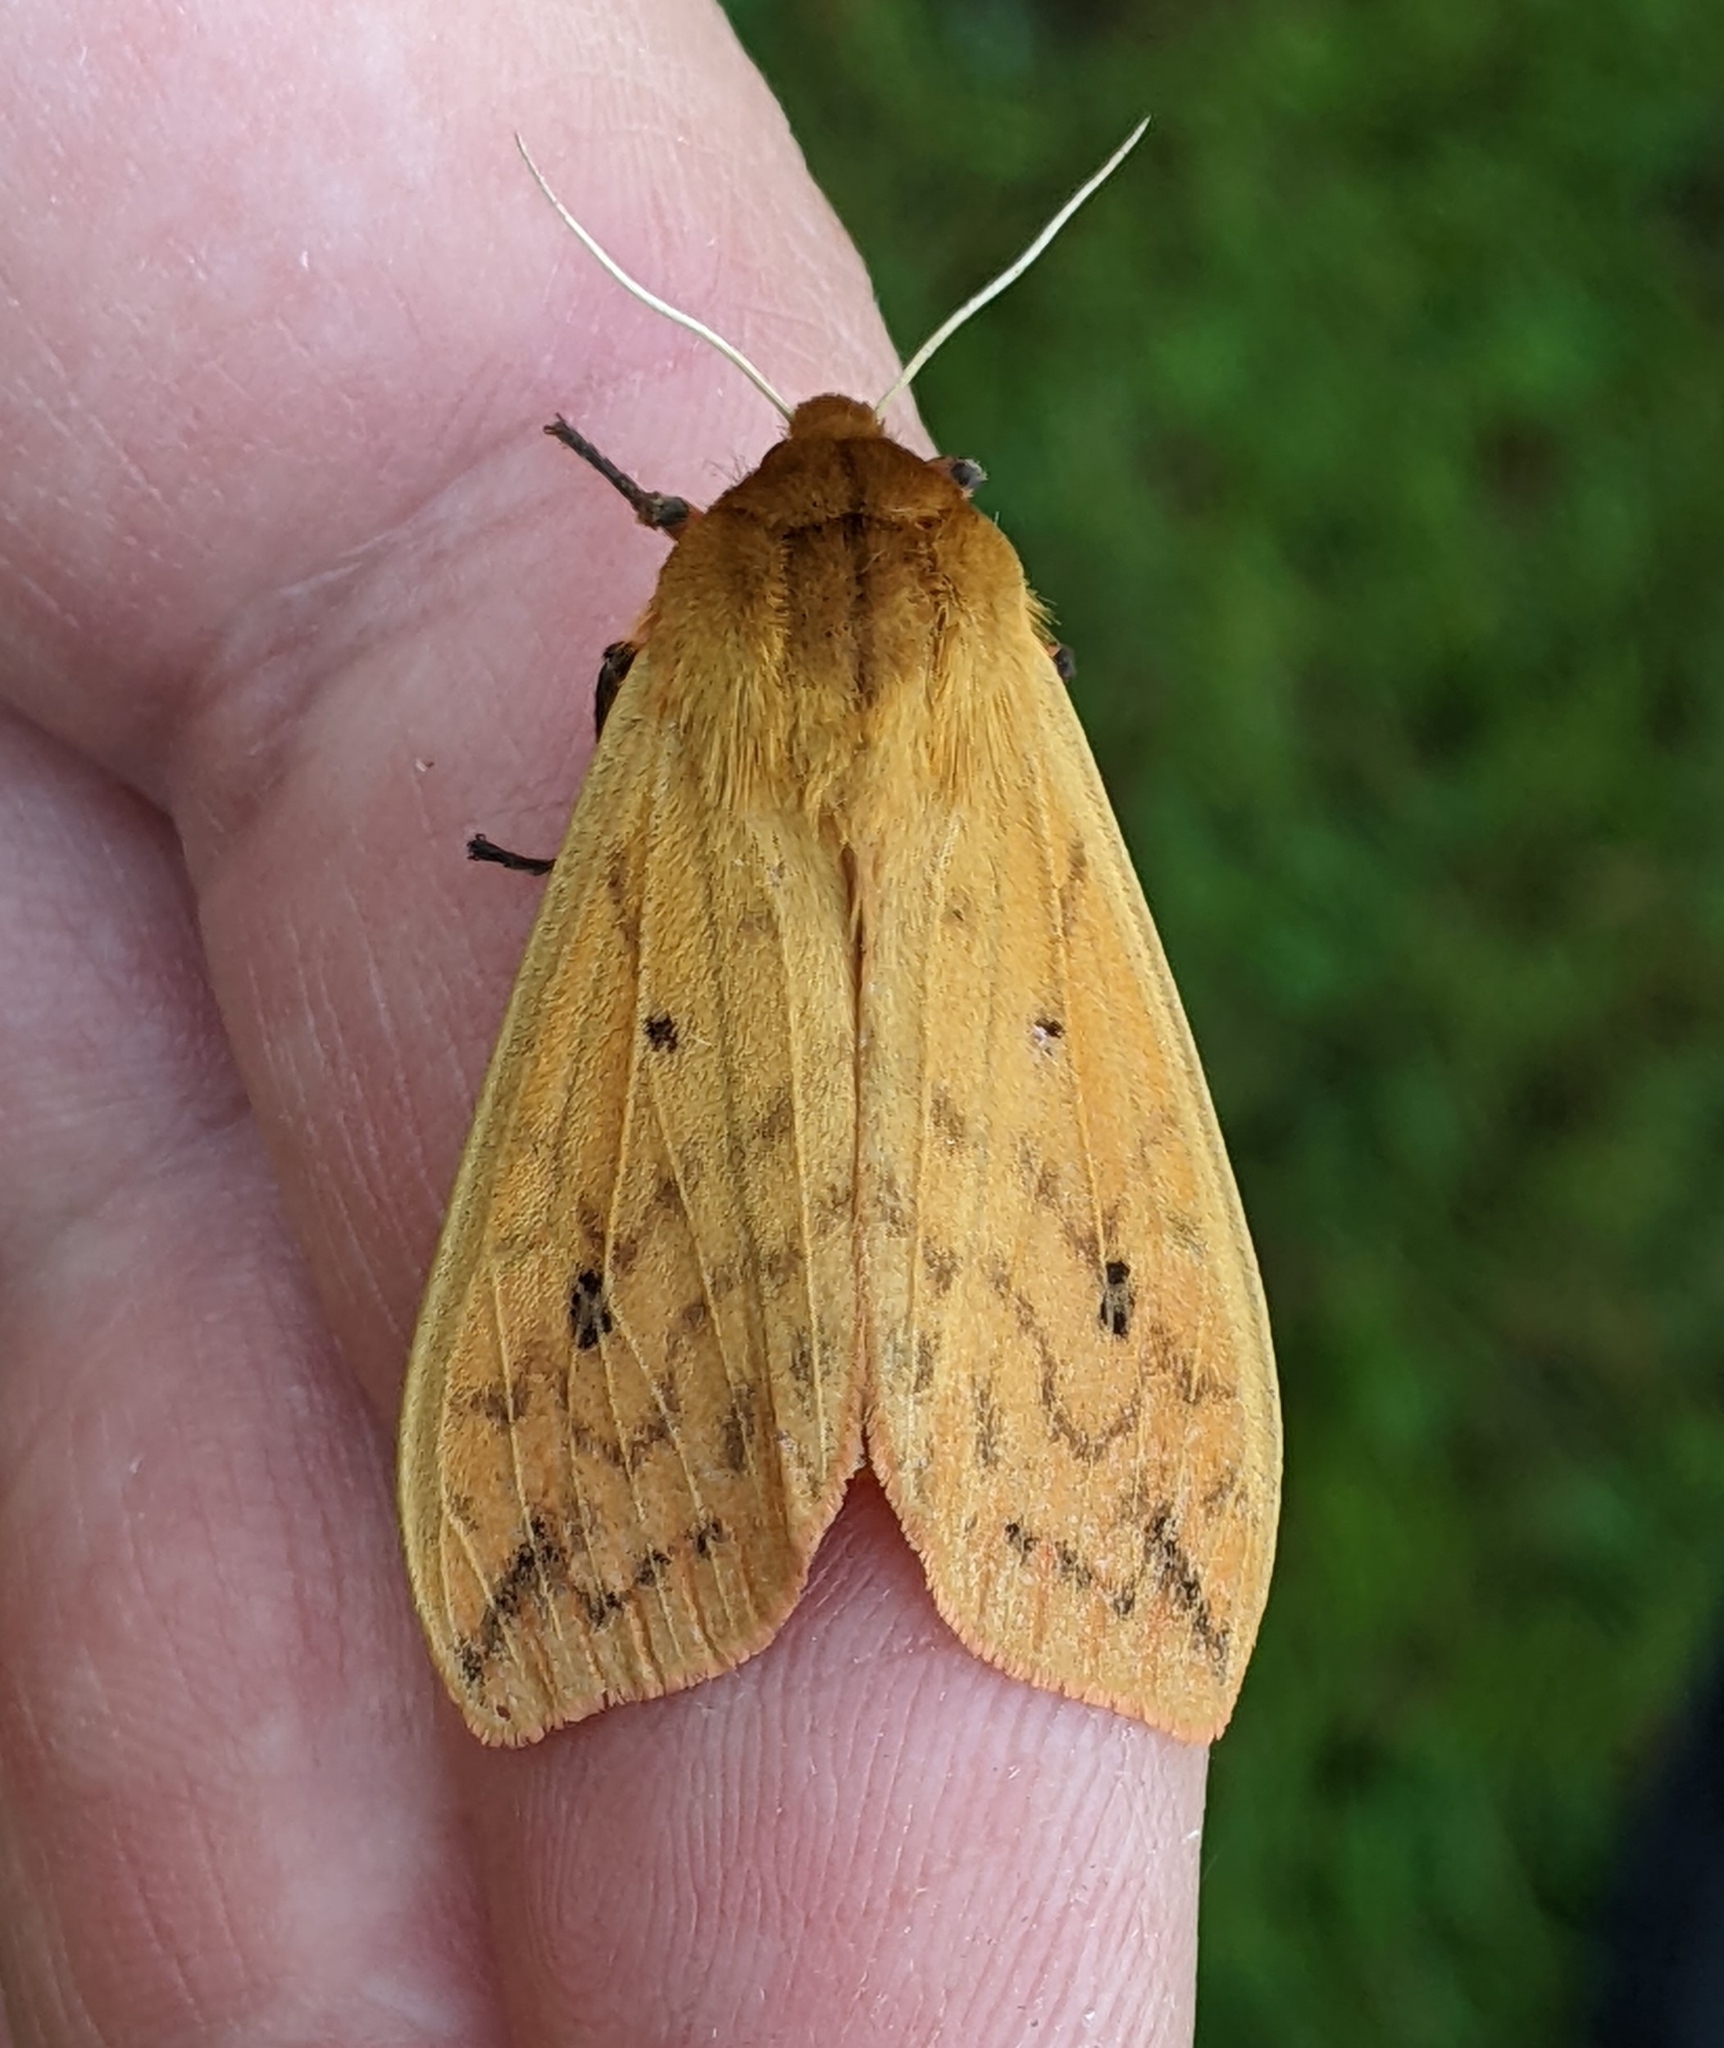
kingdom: Animalia
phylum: Arthropoda
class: Insecta
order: Lepidoptera
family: Erebidae
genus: Pyrrharctia
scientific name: Pyrrharctia isabella
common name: Isabella tiger moth
